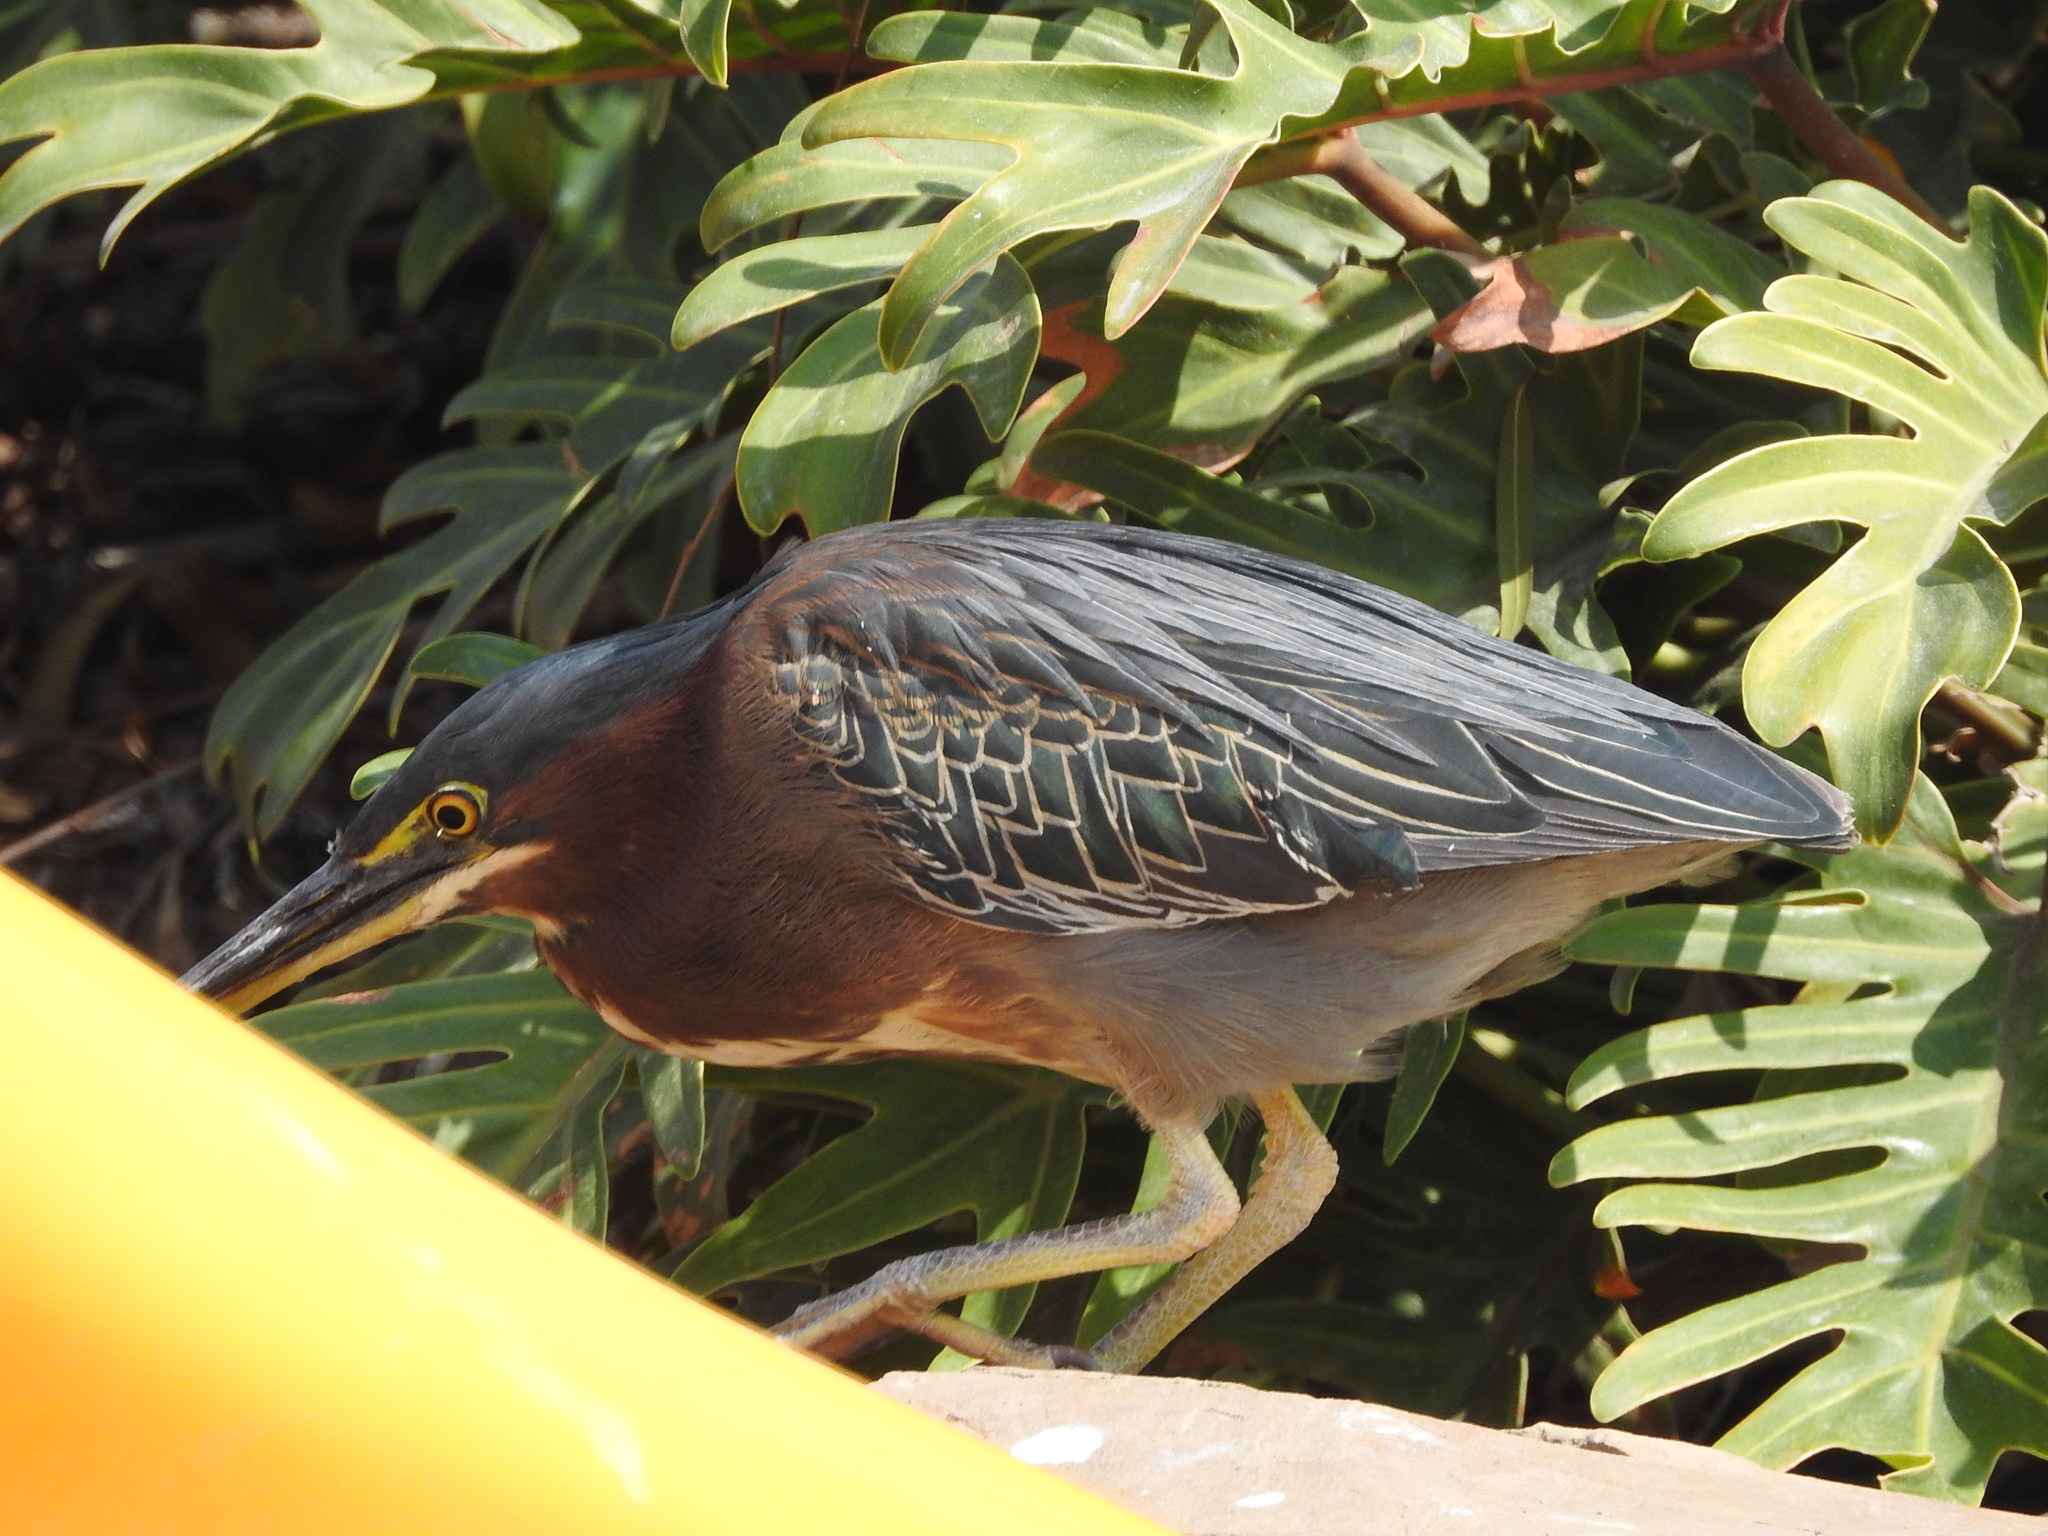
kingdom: Animalia
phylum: Chordata
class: Aves
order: Pelecaniformes
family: Ardeidae
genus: Butorides
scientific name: Butorides virescens
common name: Green heron
